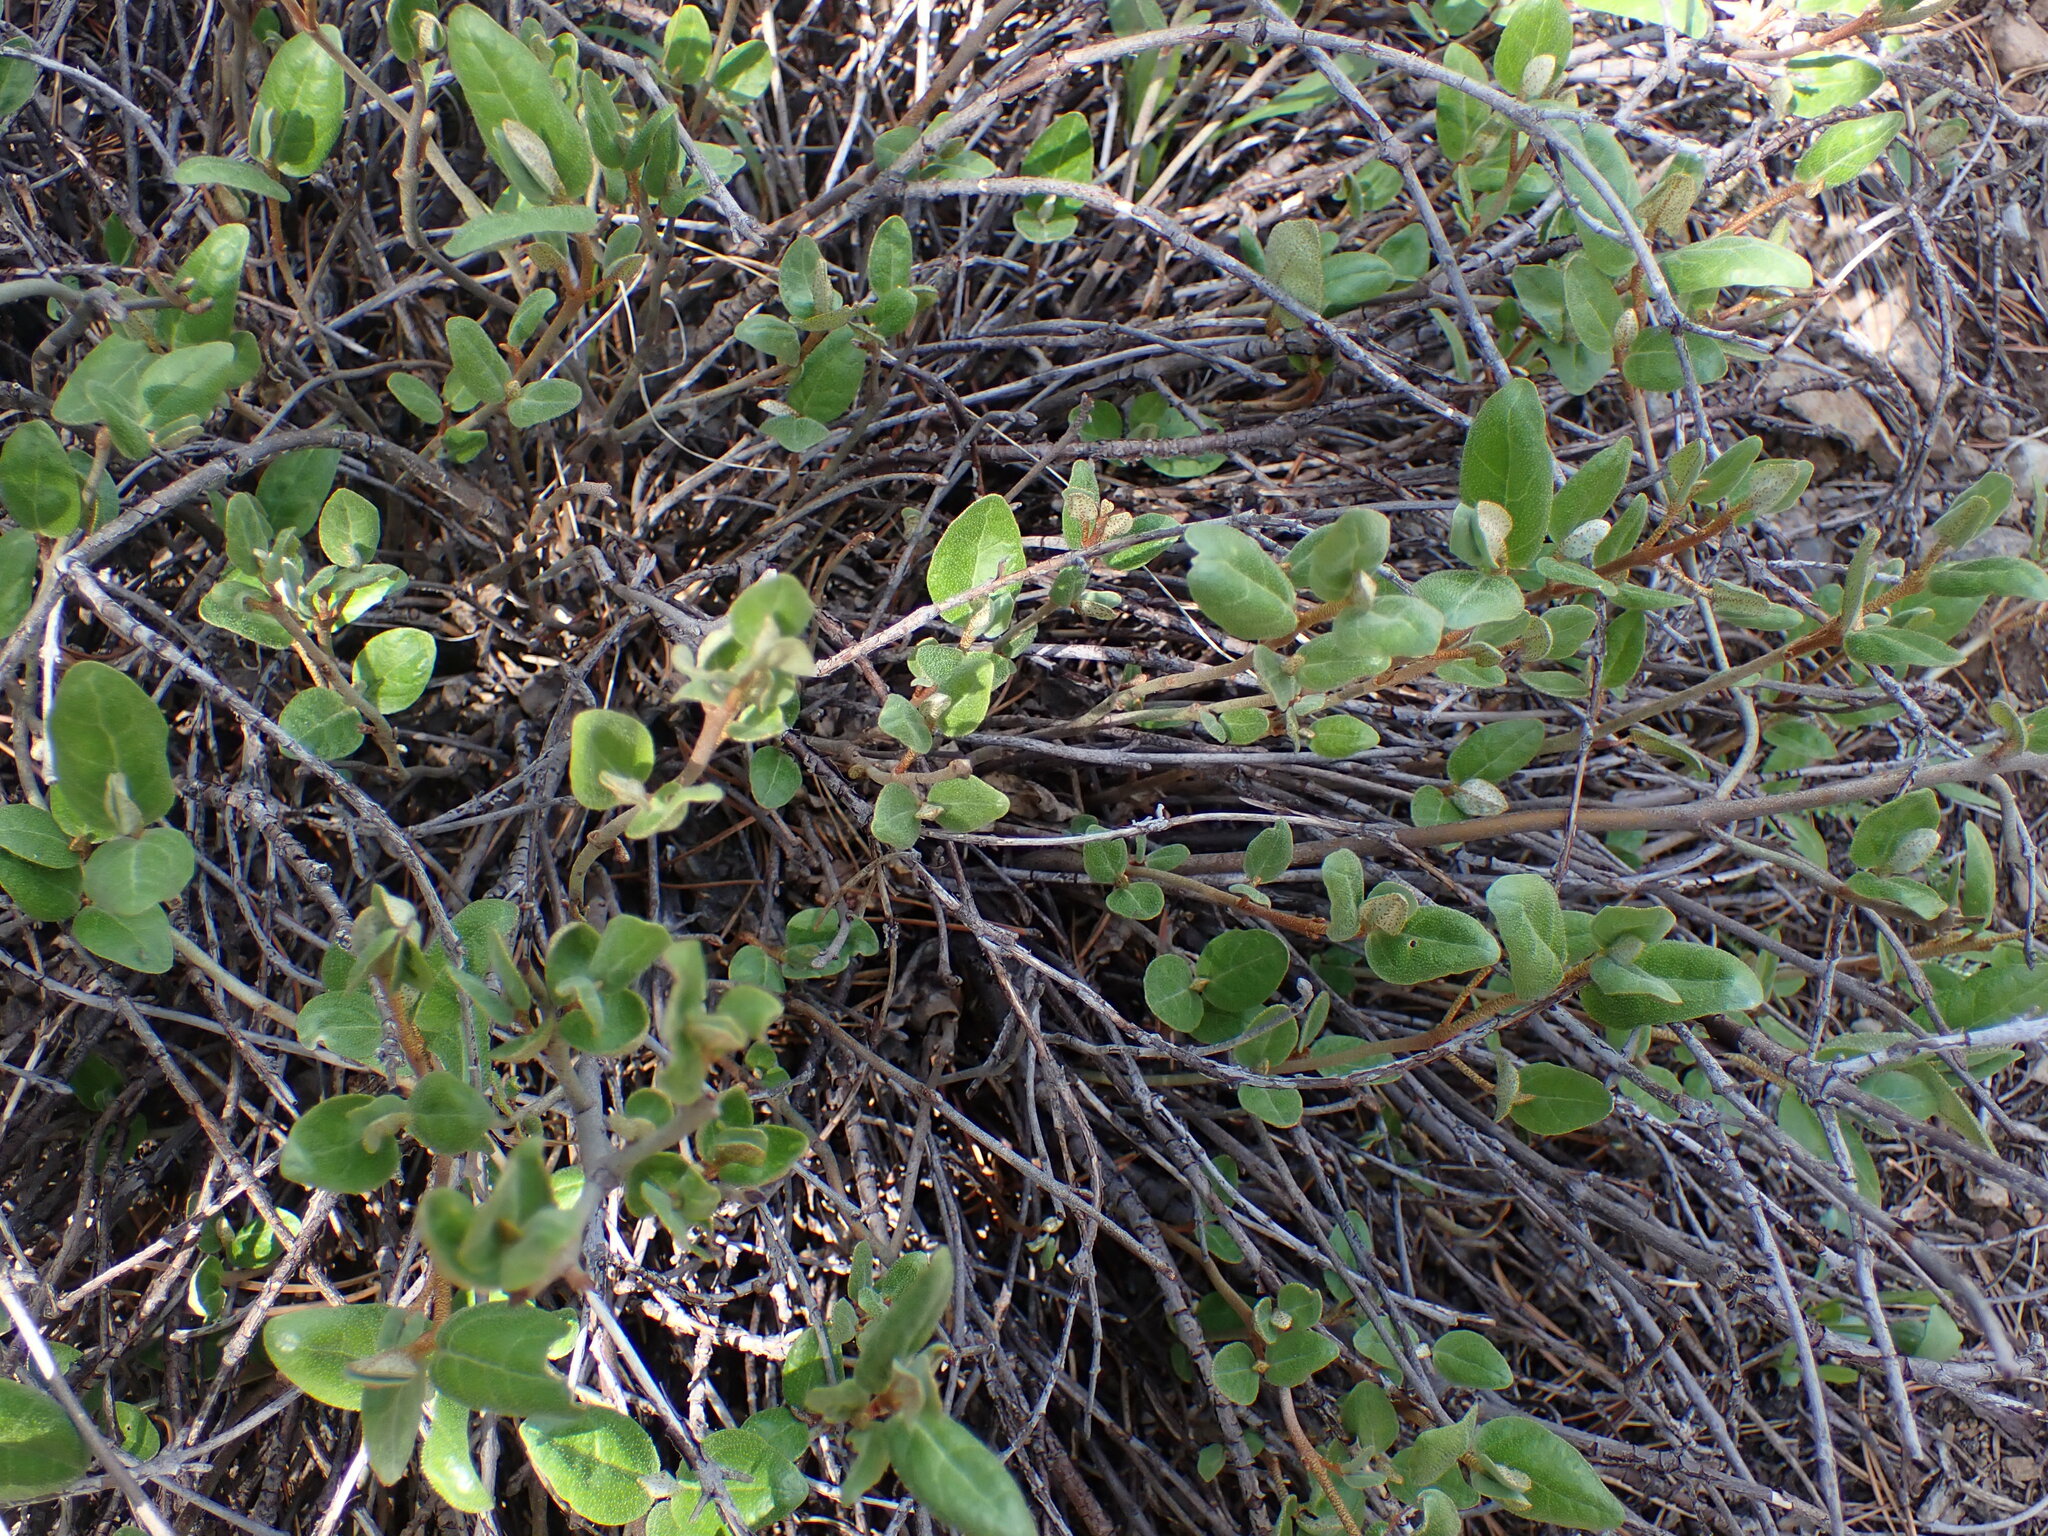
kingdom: Plantae
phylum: Tracheophyta
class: Magnoliopsida
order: Rosales
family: Elaeagnaceae
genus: Shepherdia
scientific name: Shepherdia canadensis
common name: Soapberry
